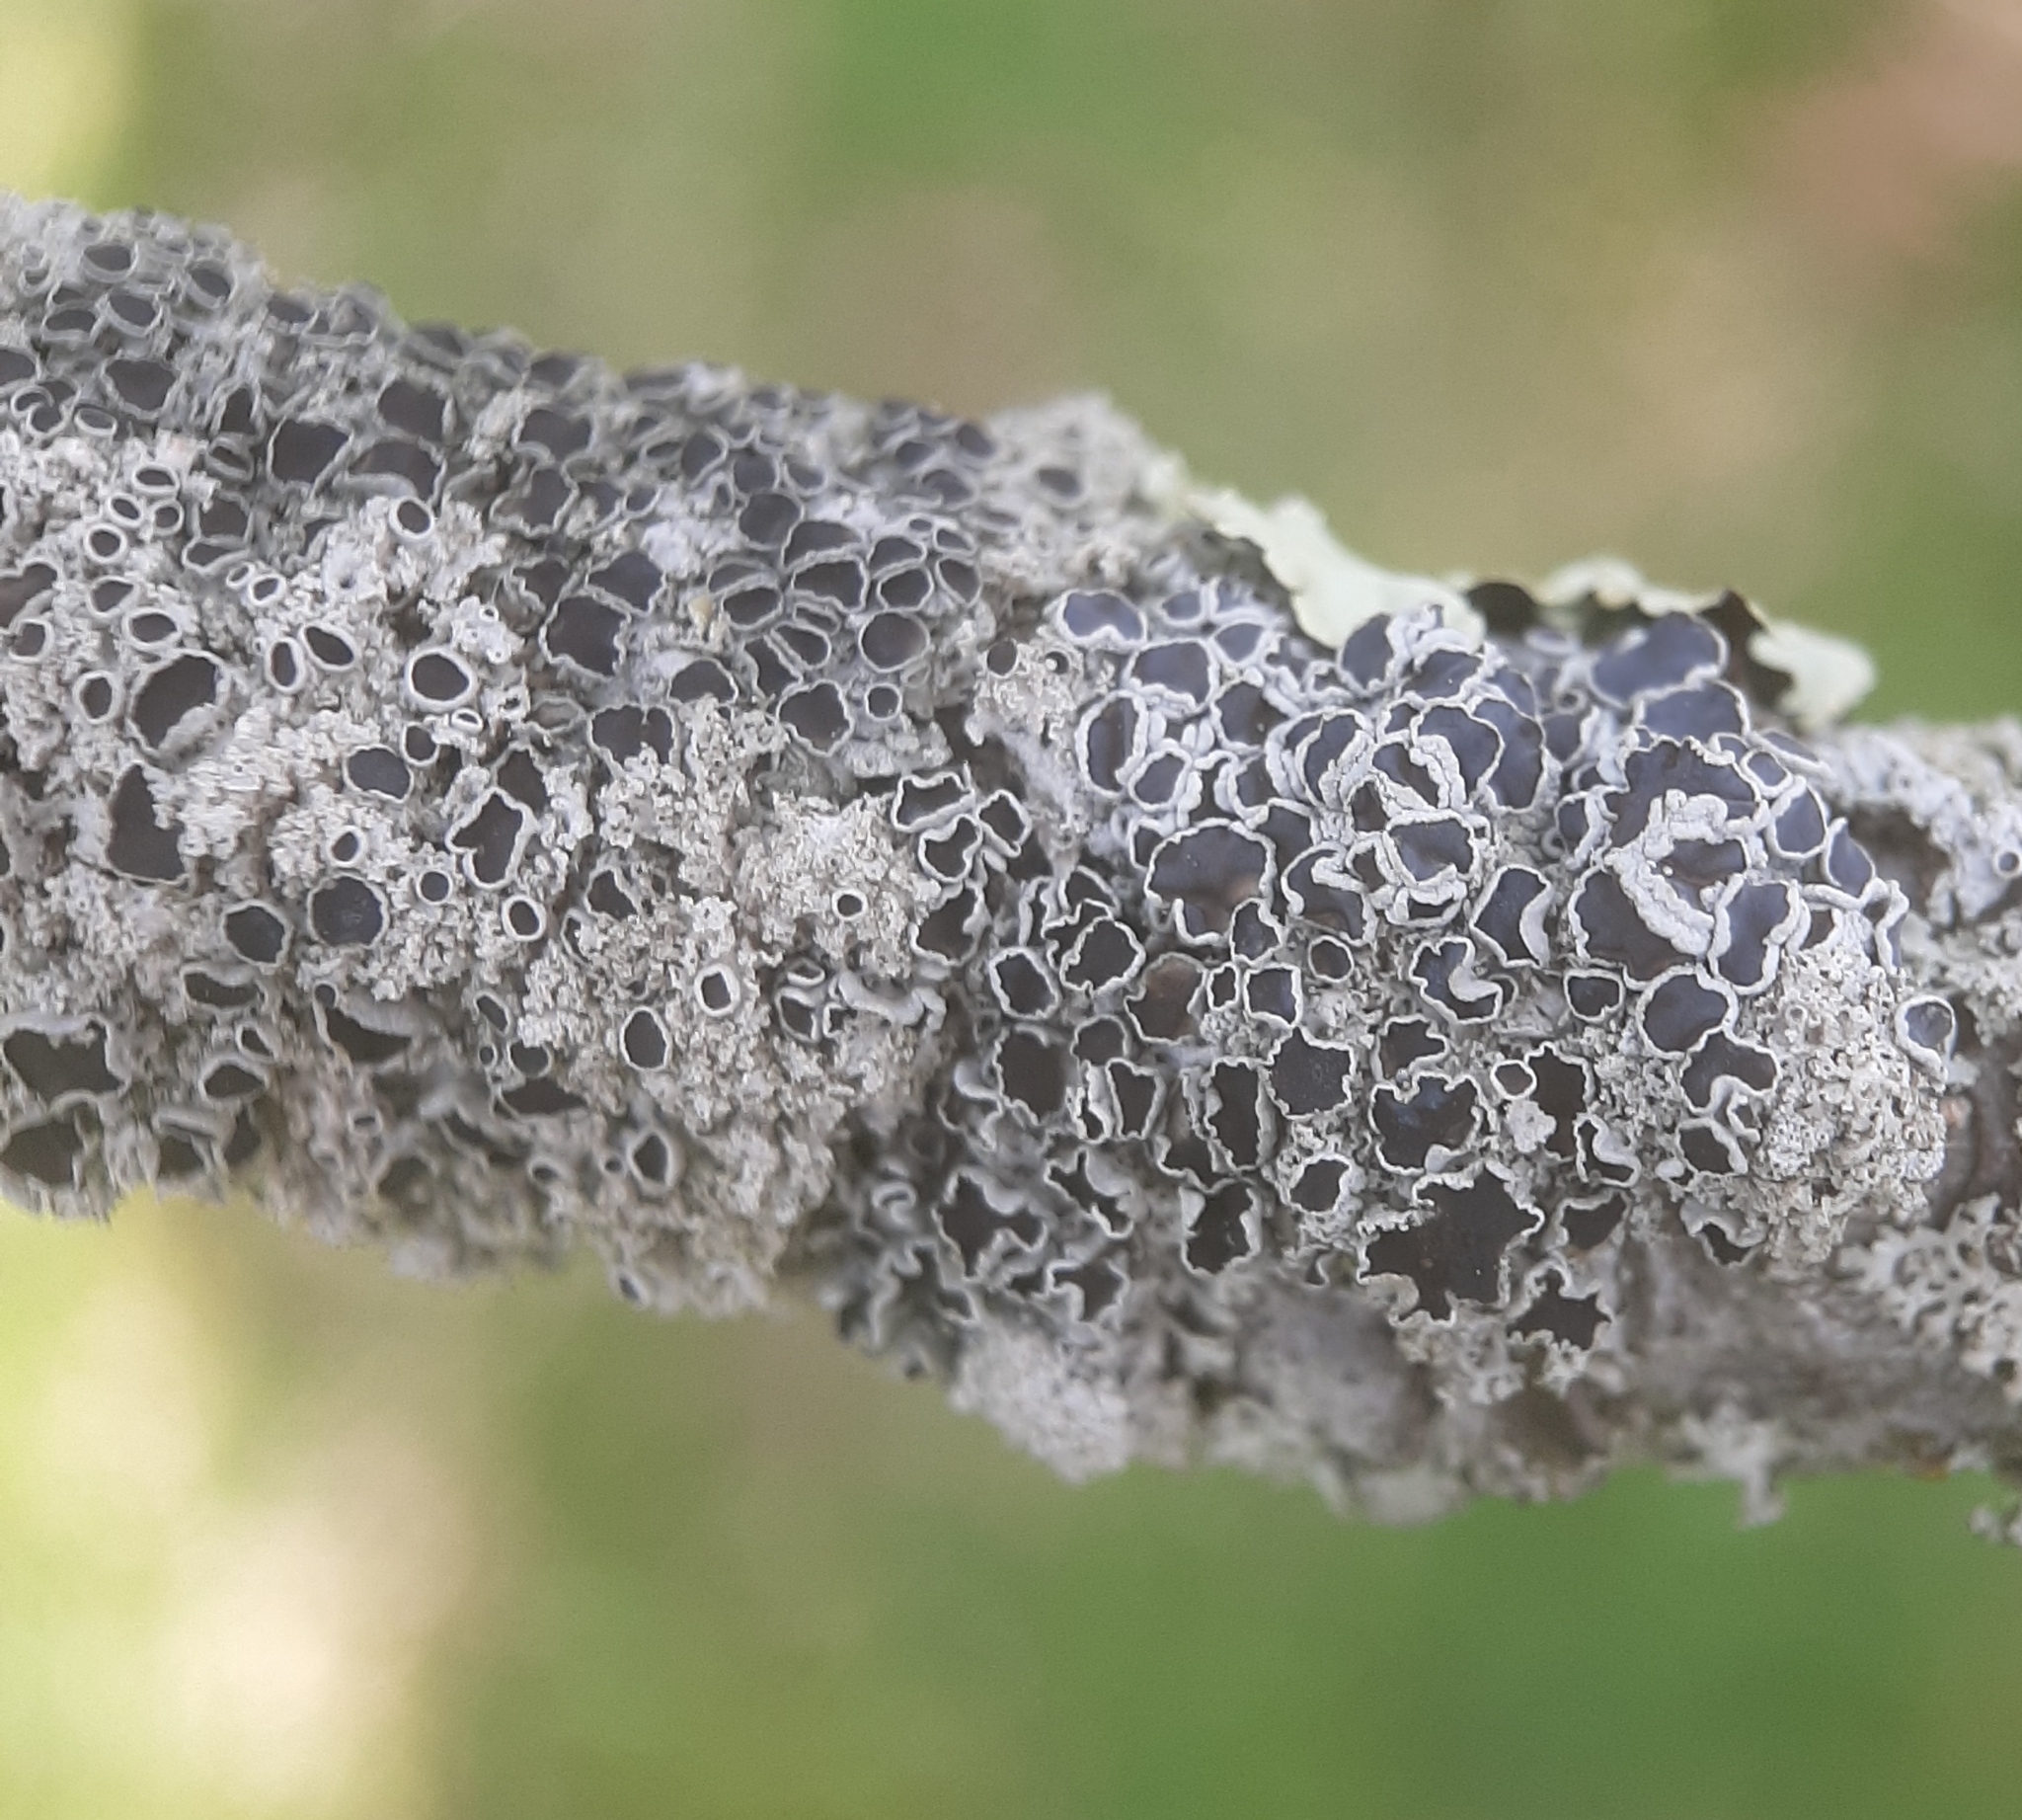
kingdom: Fungi
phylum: Ascomycota
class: Lecanoromycetes
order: Caliciales
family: Physciaceae
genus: Physcia
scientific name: Physcia millegrana
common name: Rosette lichen
